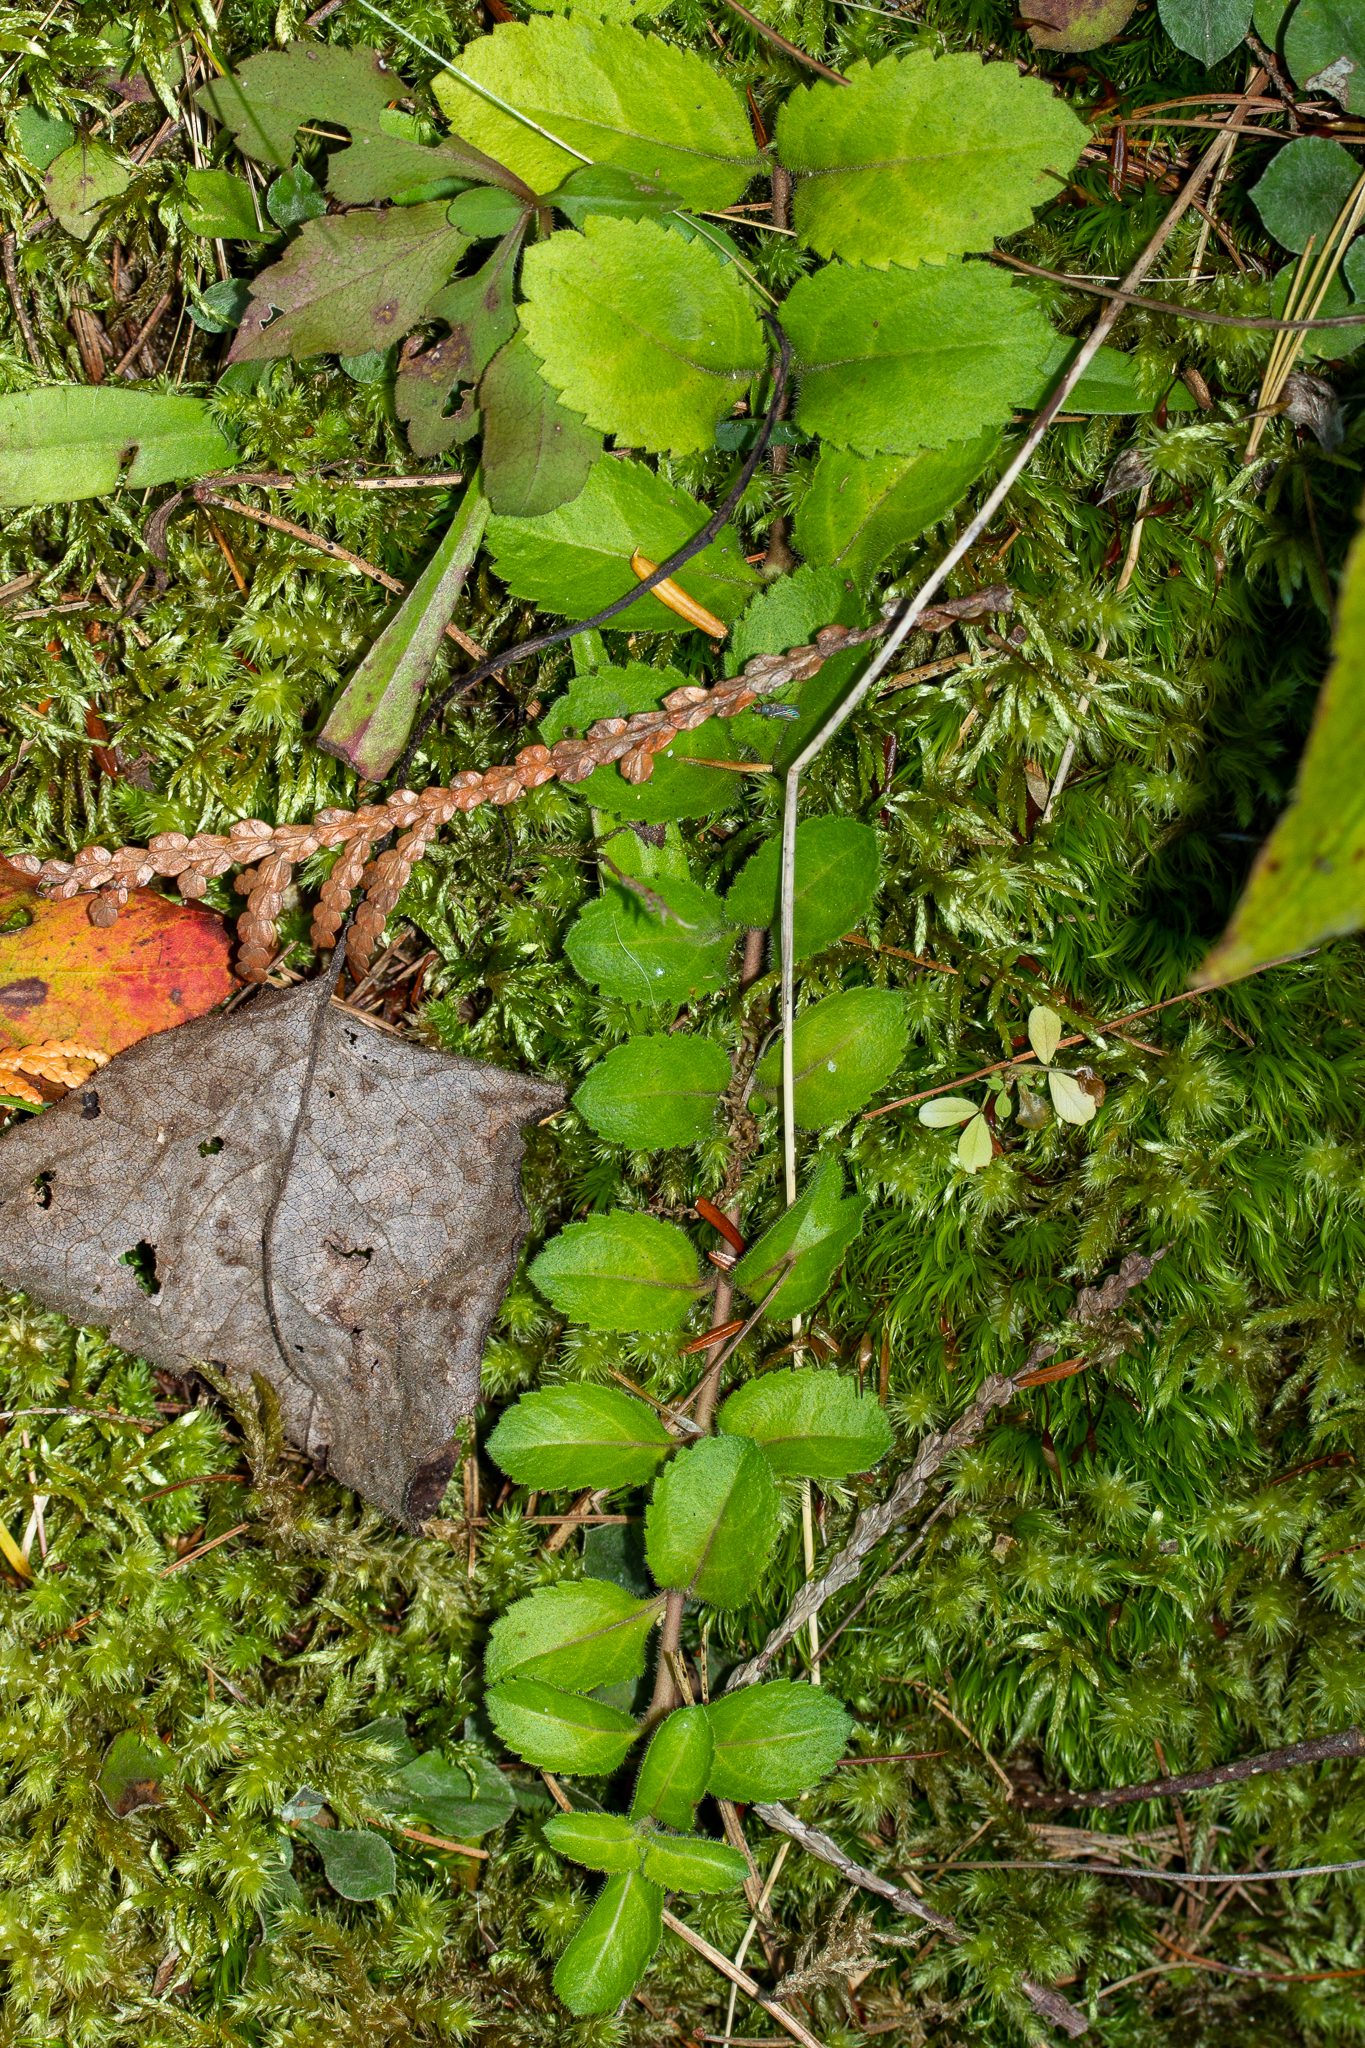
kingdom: Plantae
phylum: Tracheophyta
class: Magnoliopsida
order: Lamiales
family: Plantaginaceae
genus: Veronica
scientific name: Veronica officinalis
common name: Common speedwell
